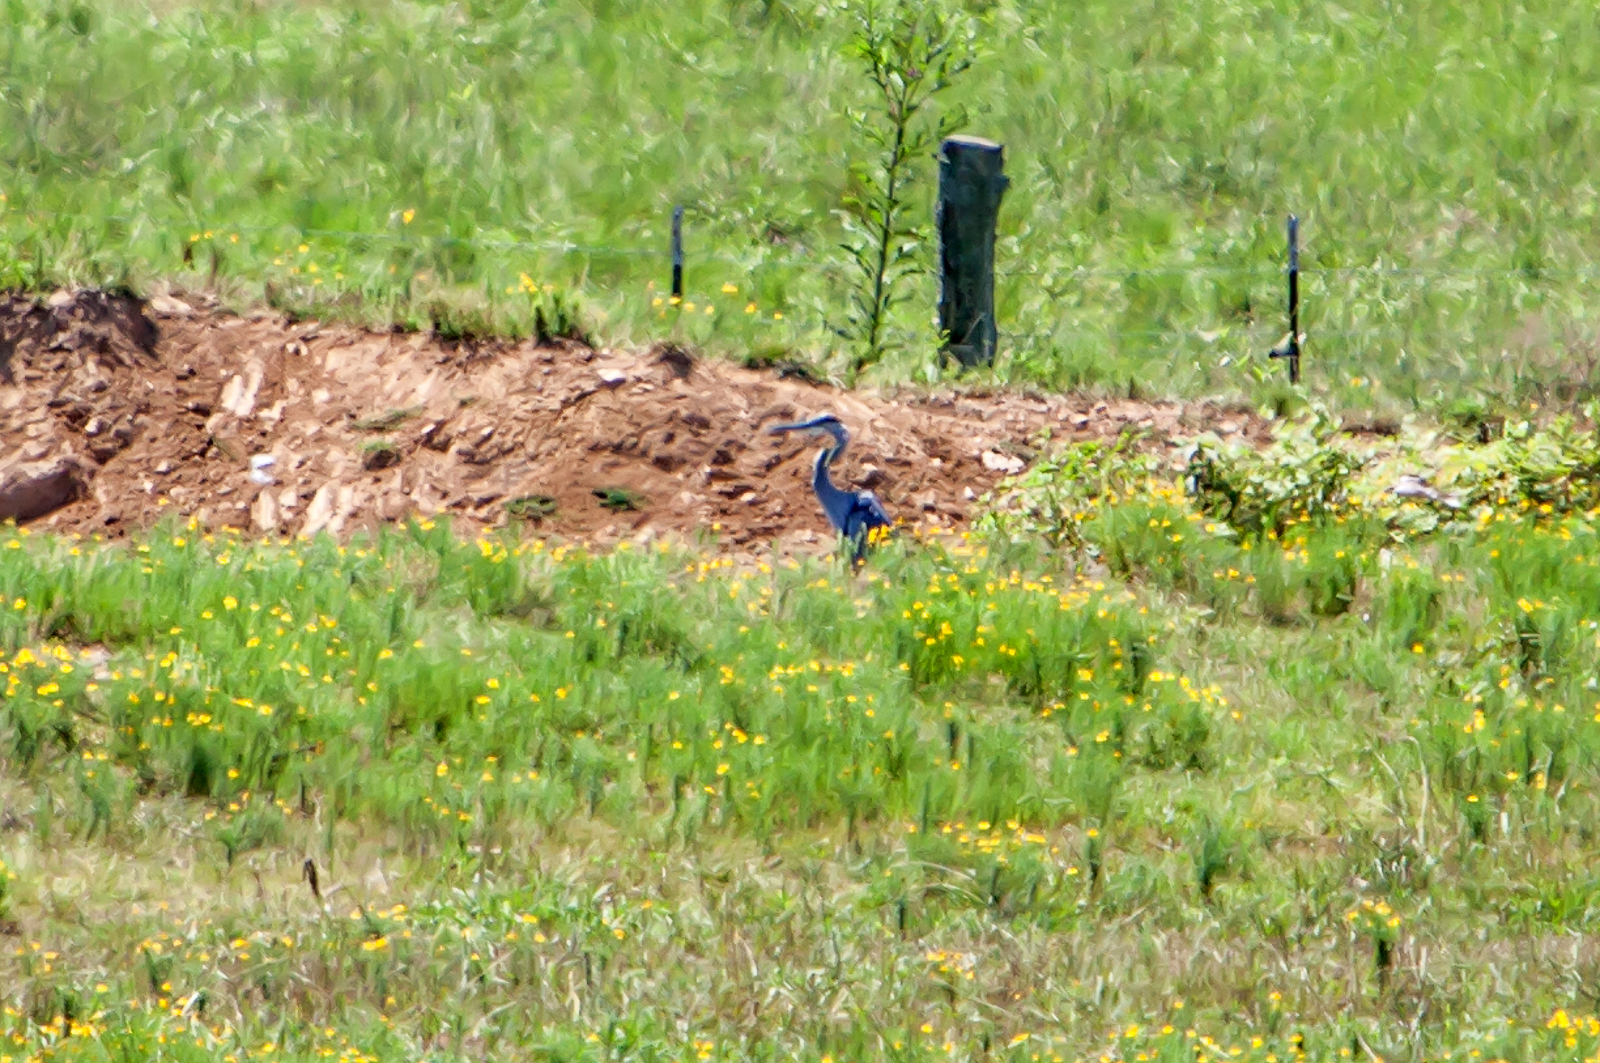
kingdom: Animalia
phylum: Chordata
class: Aves
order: Pelecaniformes
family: Ardeidae
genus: Ardea
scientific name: Ardea herodias
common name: Great blue heron
